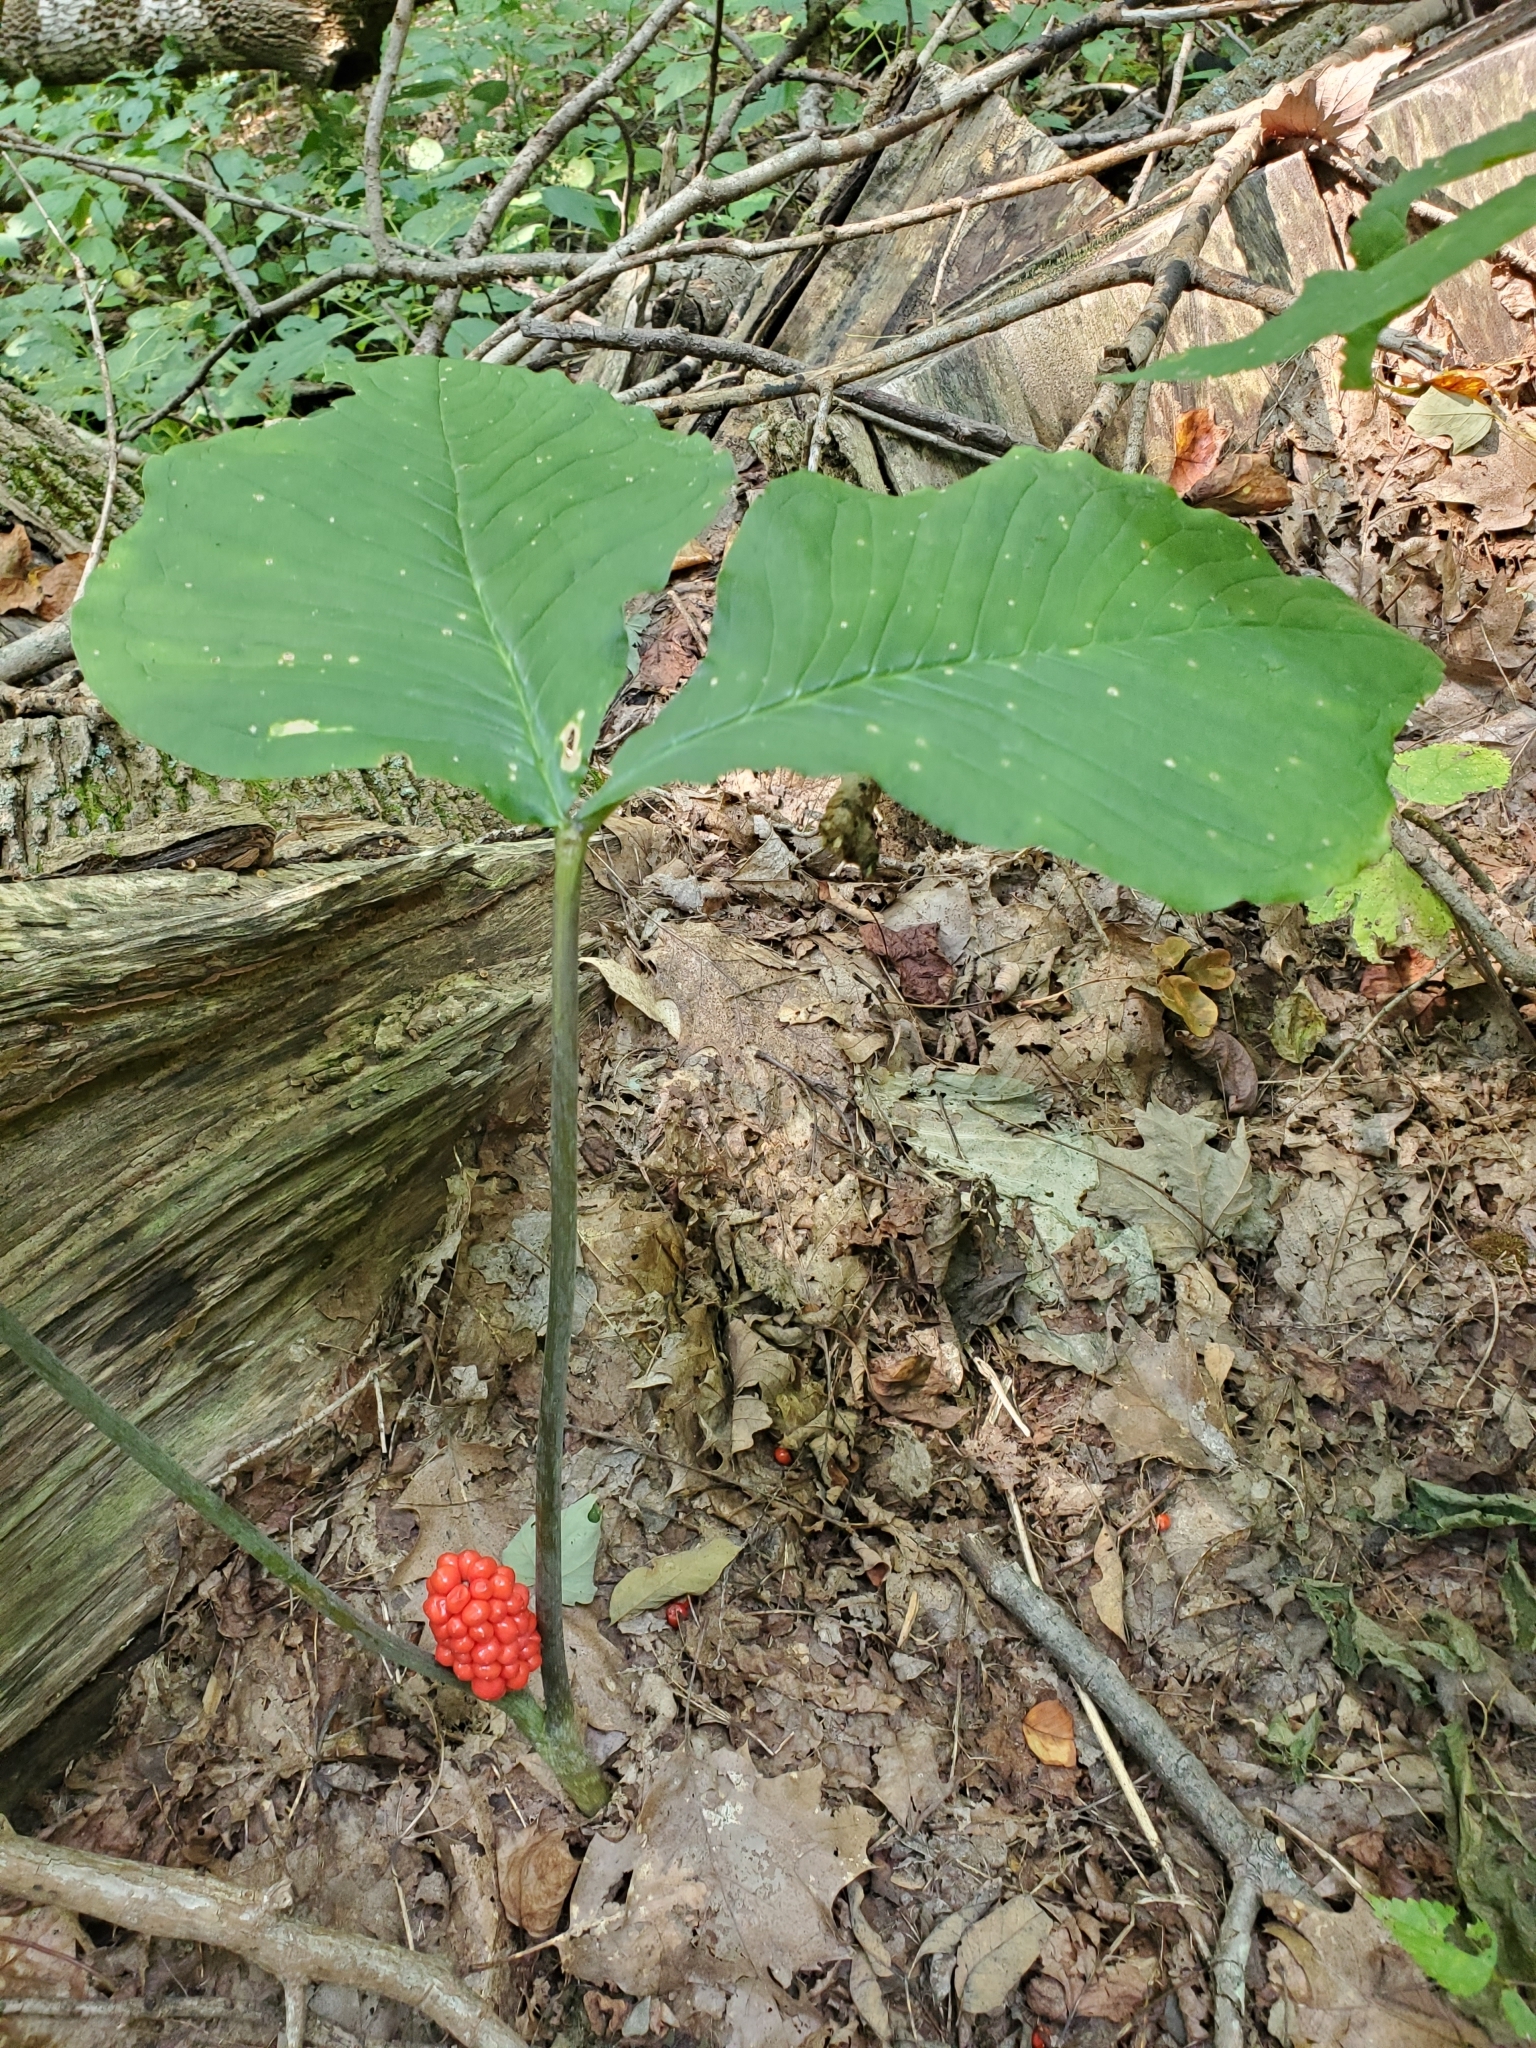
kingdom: Plantae
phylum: Tracheophyta
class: Liliopsida
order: Alismatales
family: Araceae
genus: Arisaema
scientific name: Arisaema triphyllum
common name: Jack-in-the-pulpit
